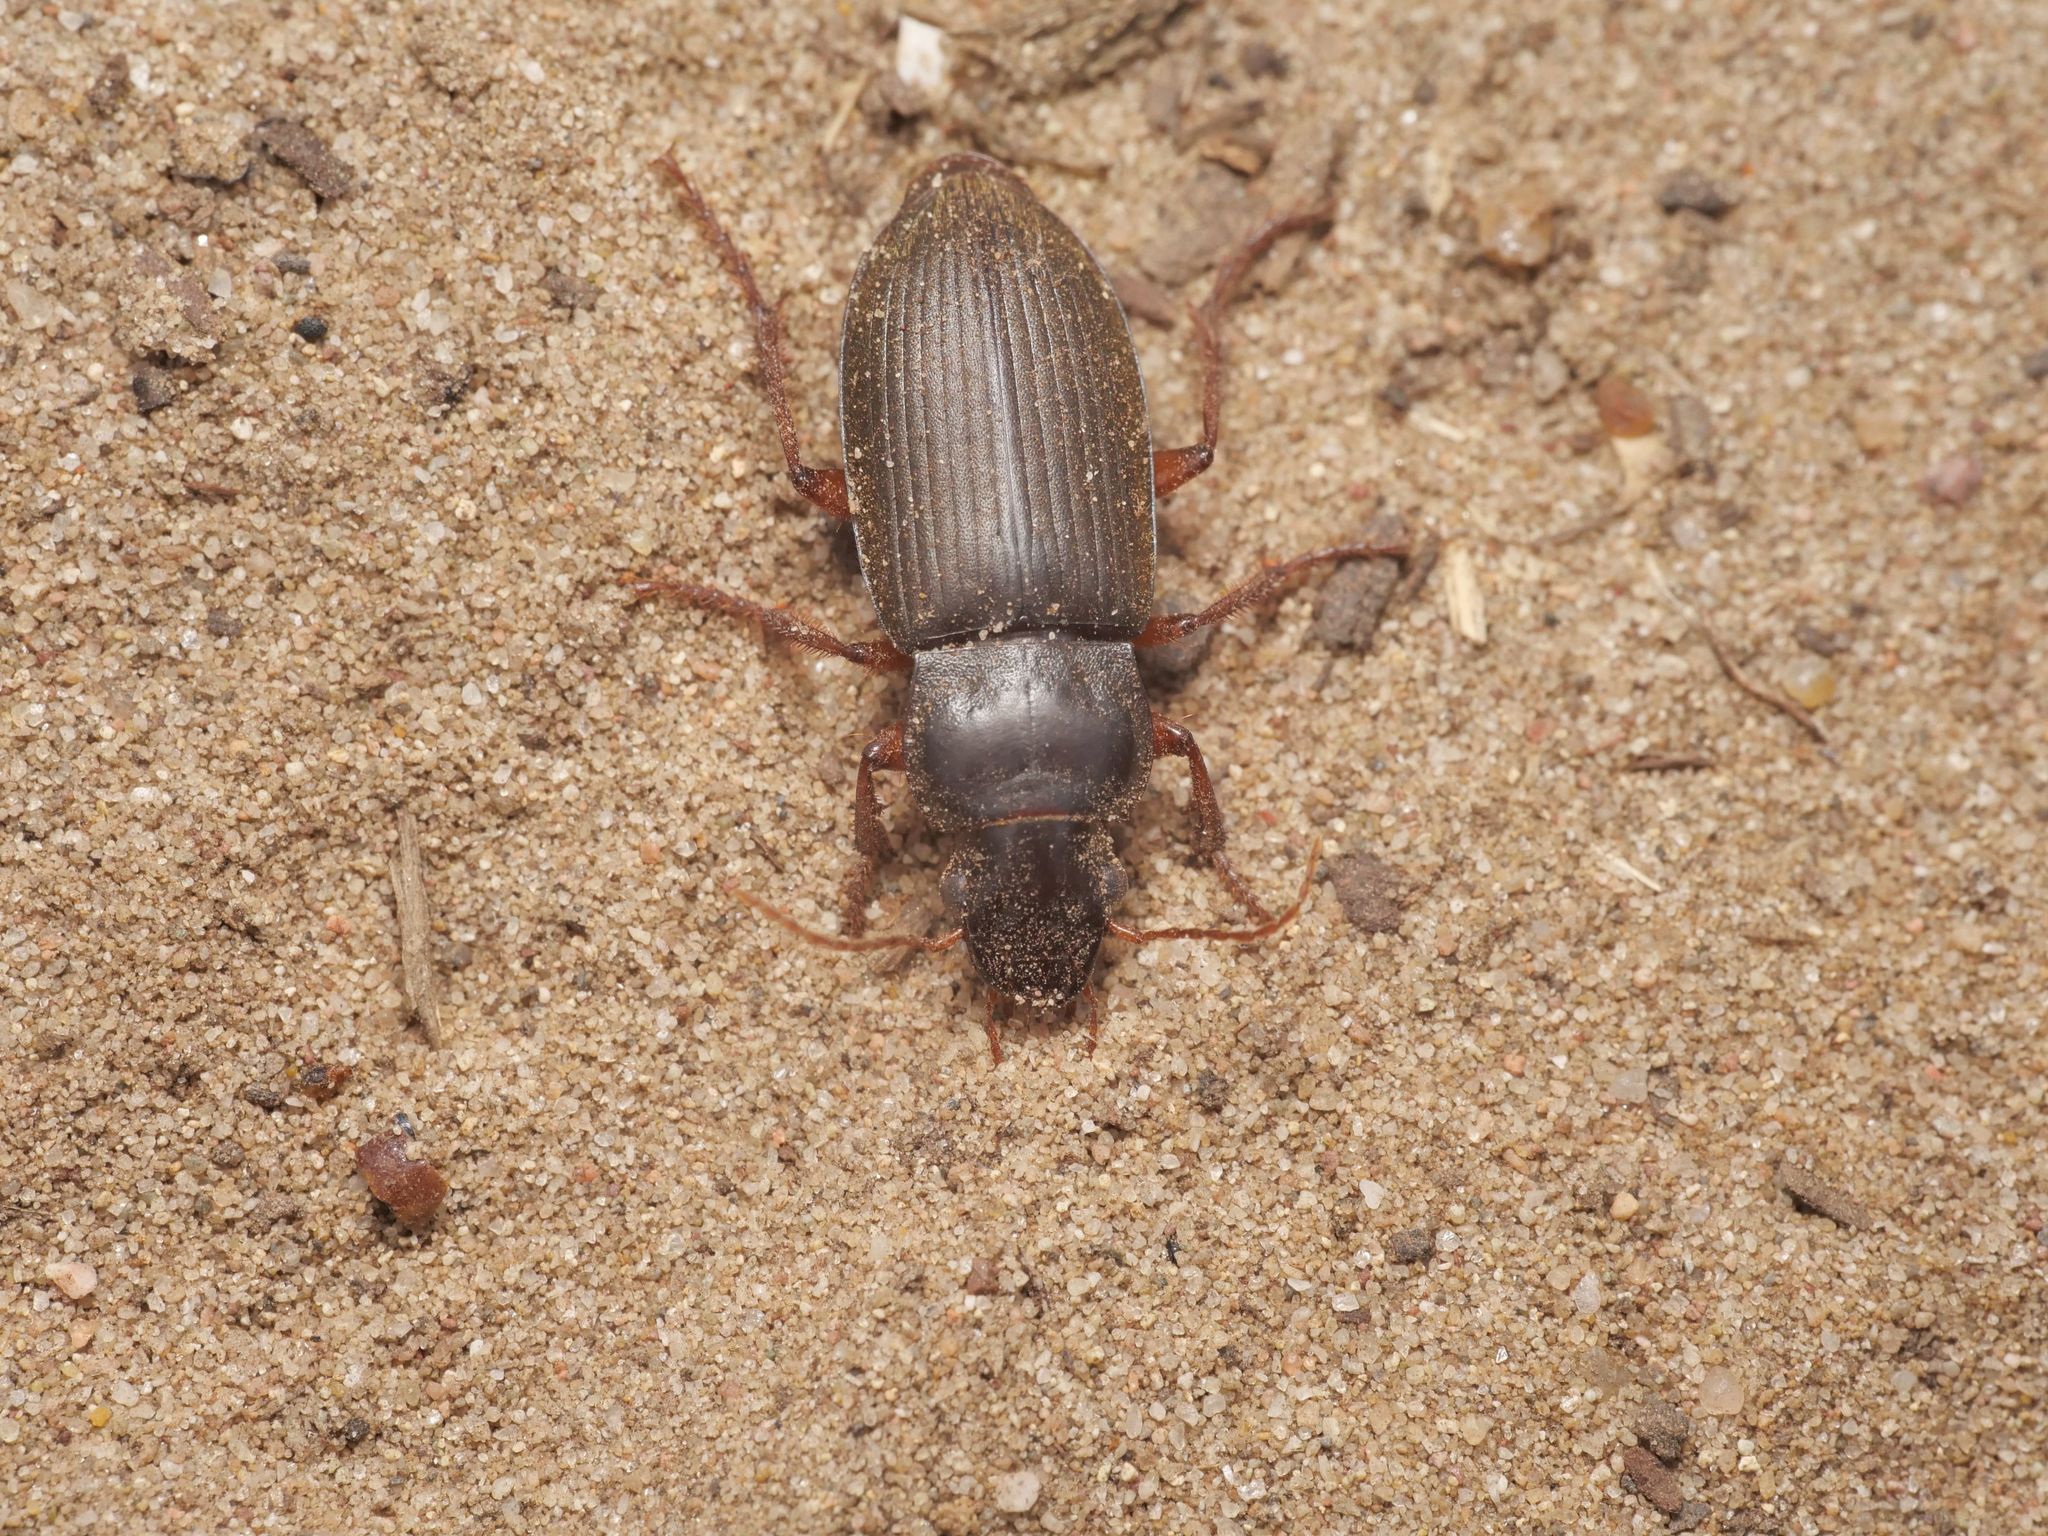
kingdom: Animalia
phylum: Arthropoda
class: Insecta
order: Coleoptera
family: Carabidae
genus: Harpalus
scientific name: Harpalus rufipes
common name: Strawberry harp ground beetle
